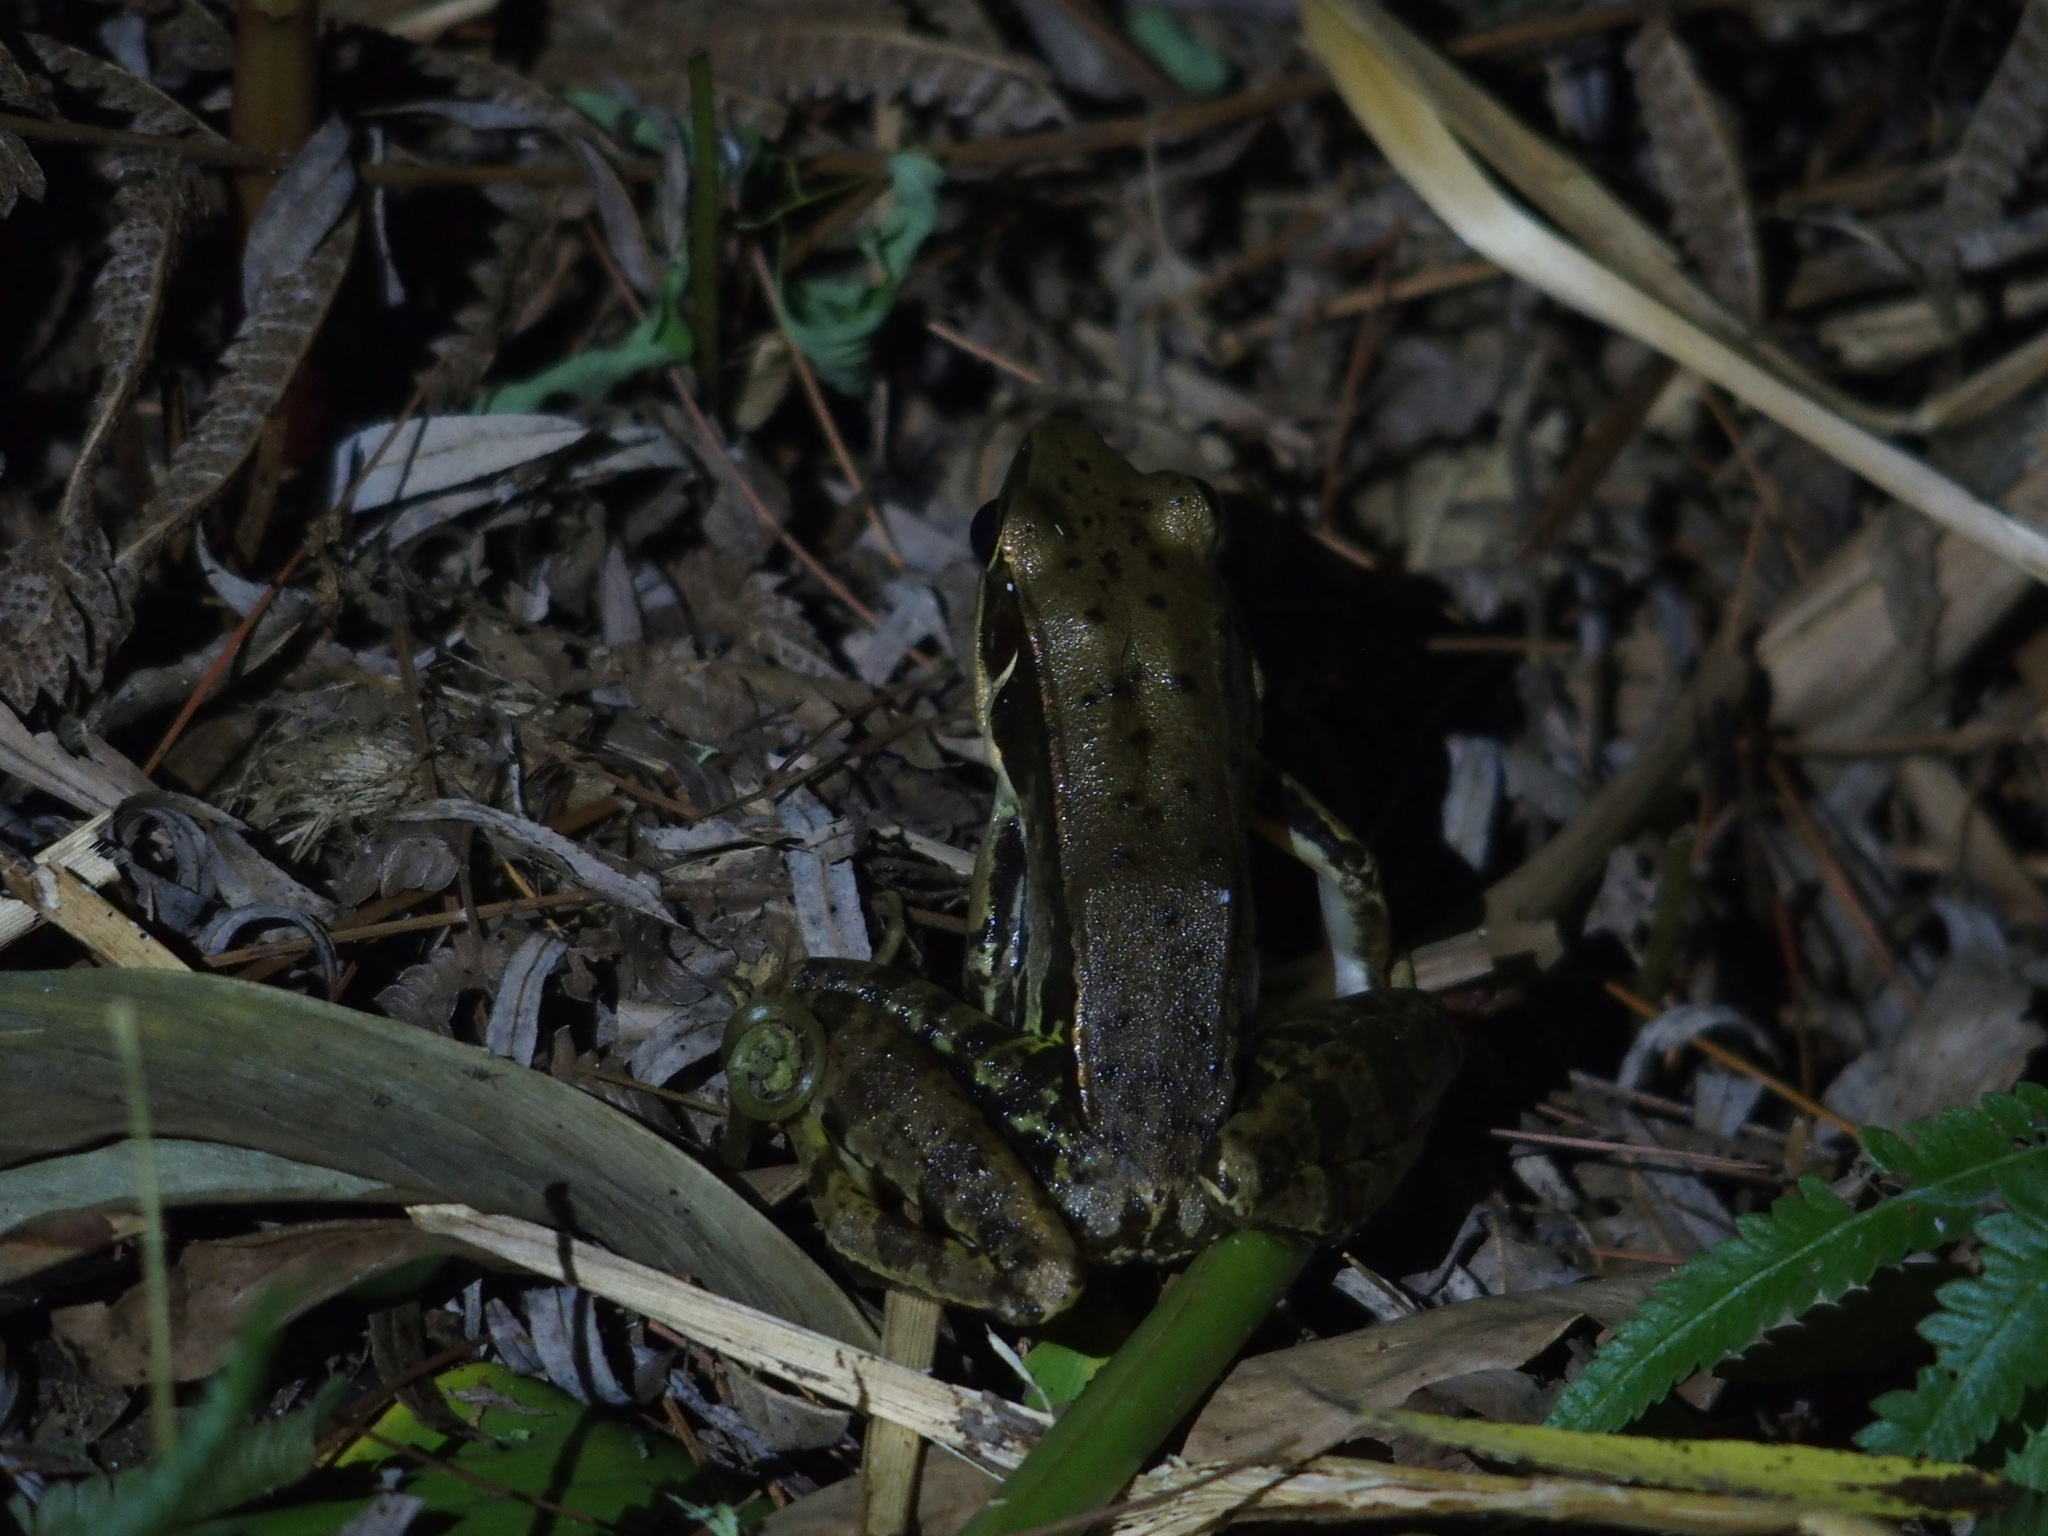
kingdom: Animalia
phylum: Chordata
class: Amphibia
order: Anura
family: Ranidae
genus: Sylvirana
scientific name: Sylvirana guentheri
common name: Guenther's amoy frog
